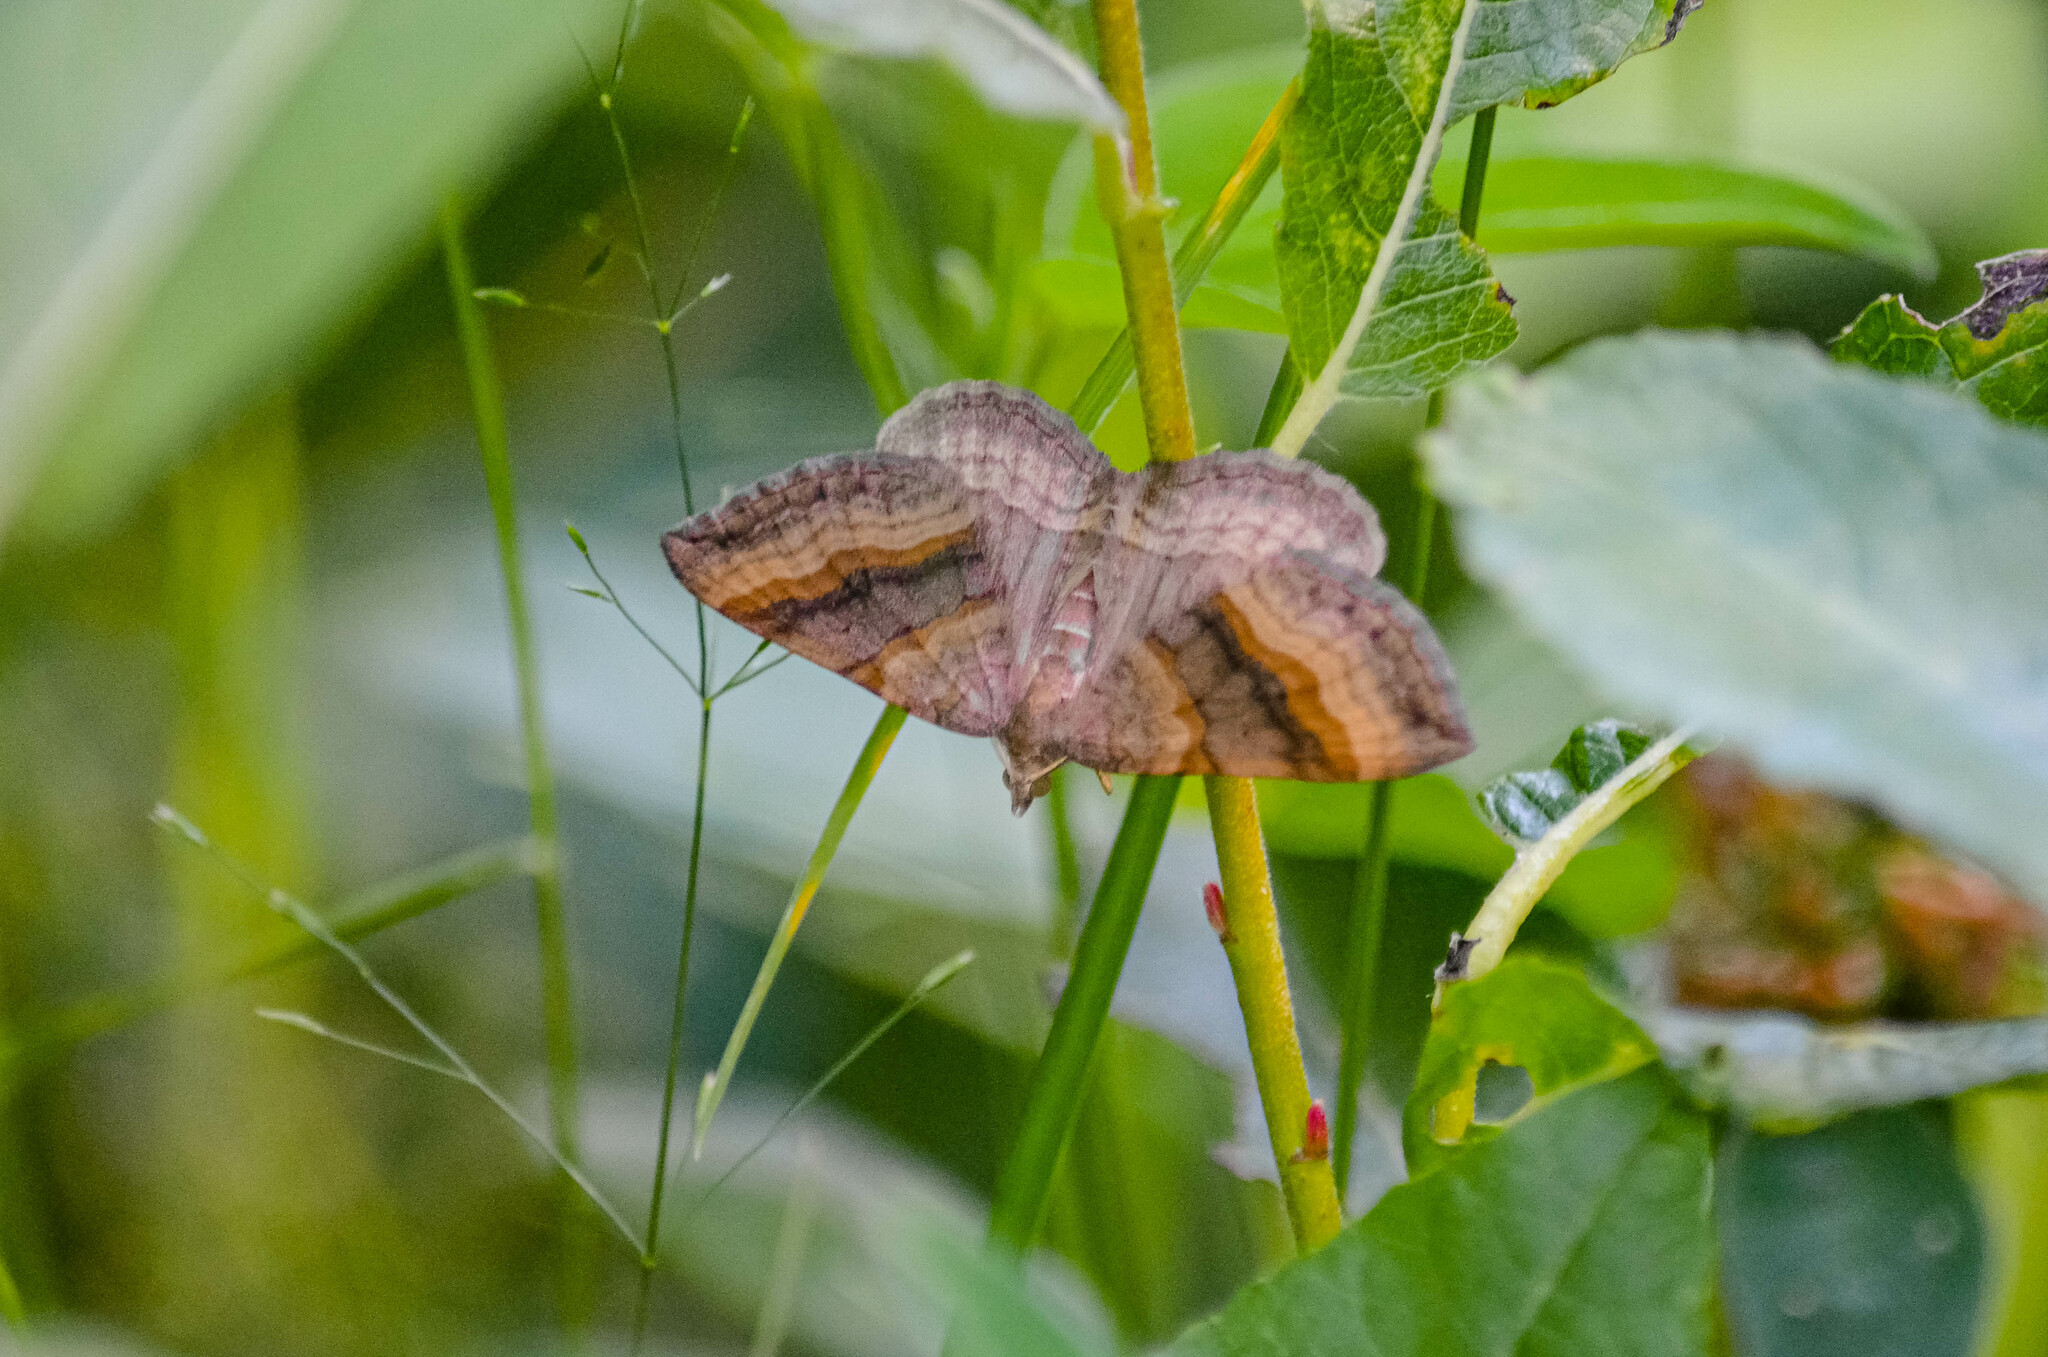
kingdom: Animalia
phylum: Arthropoda
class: Insecta
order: Lepidoptera
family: Geometridae
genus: Scotopteryx
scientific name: Scotopteryx chenopodiata
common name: Shaded broad-bar
